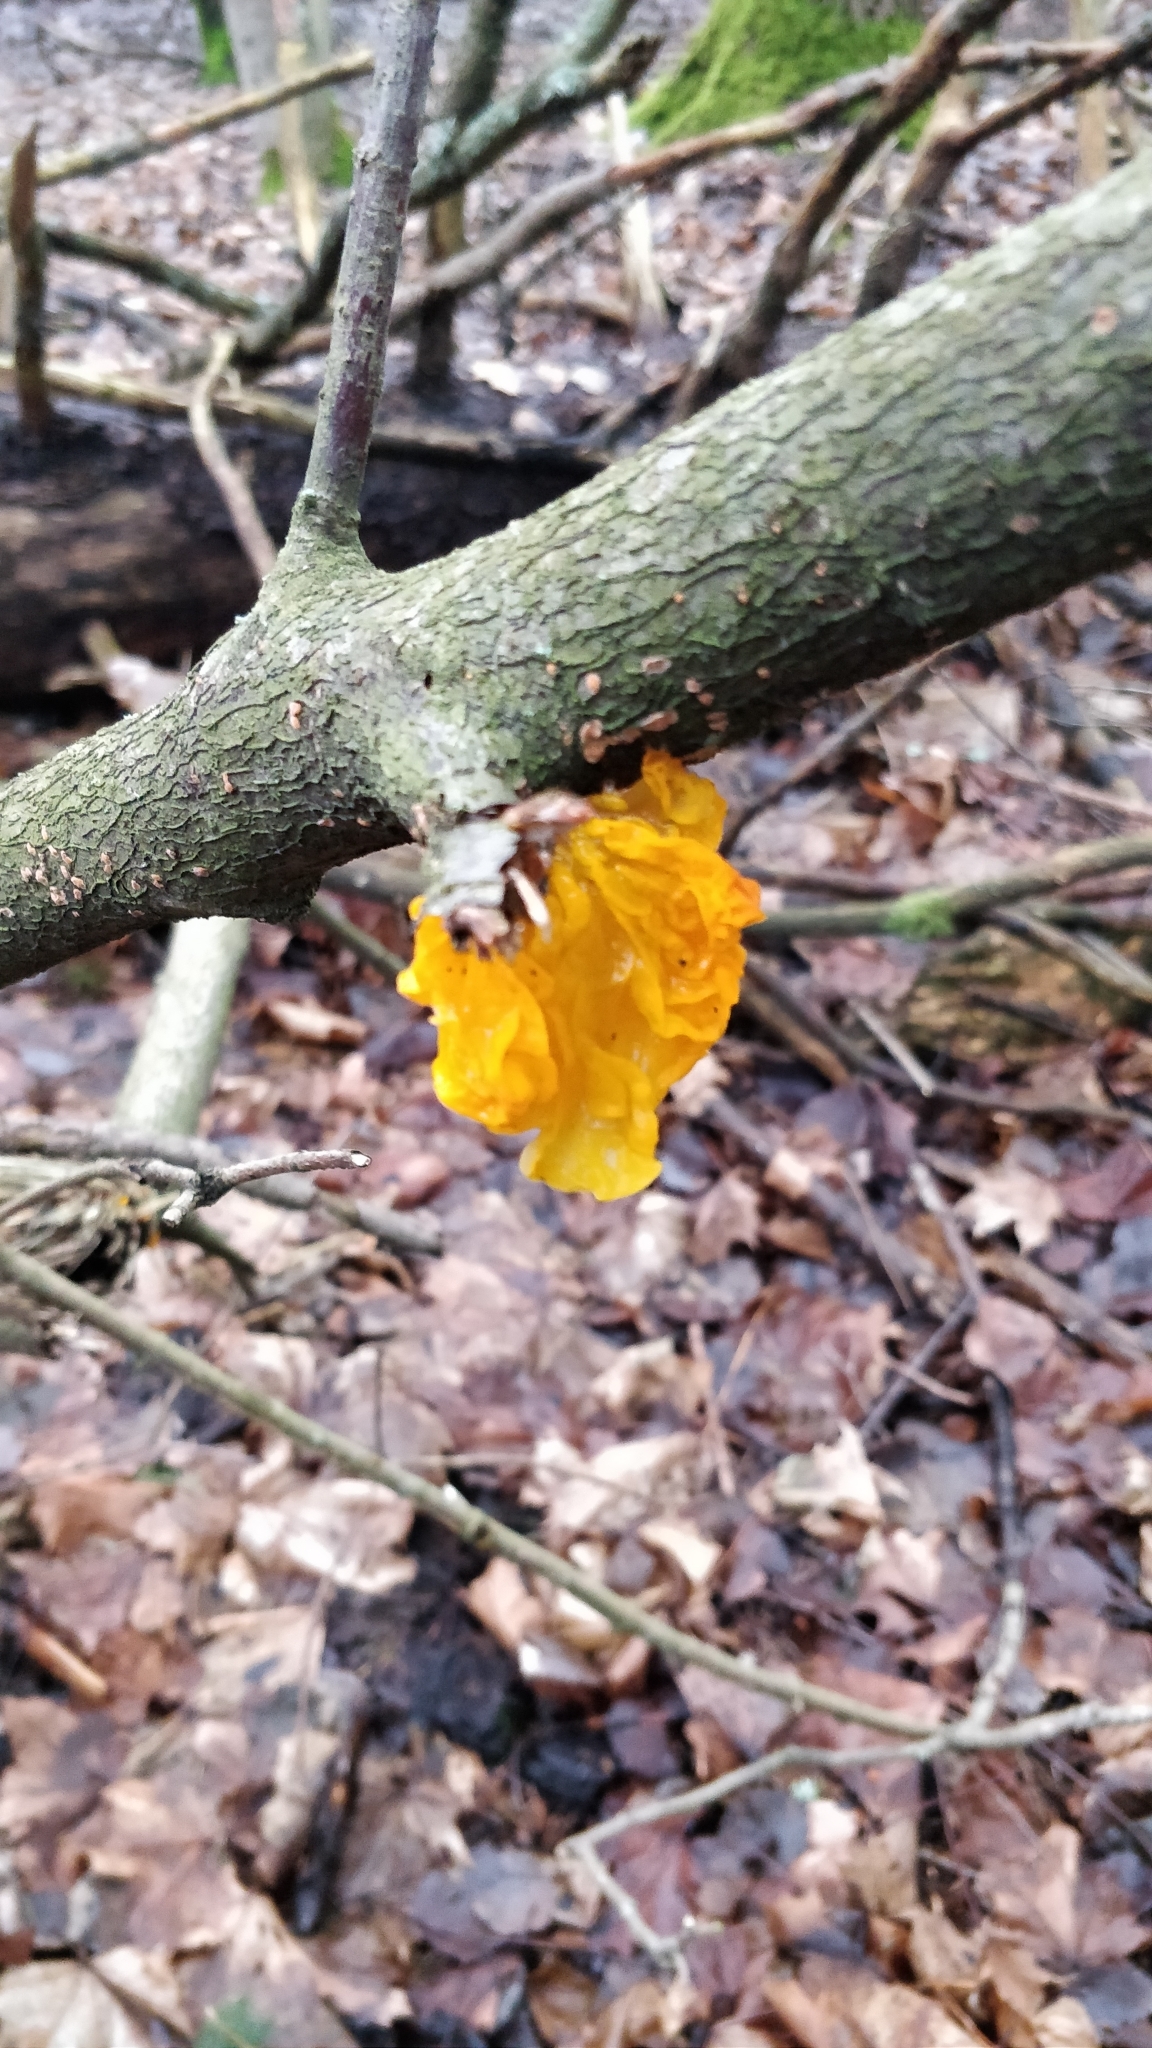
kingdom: Fungi
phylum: Basidiomycota
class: Tremellomycetes
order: Tremellales
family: Tremellaceae
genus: Tremella
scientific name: Tremella mesenterica
